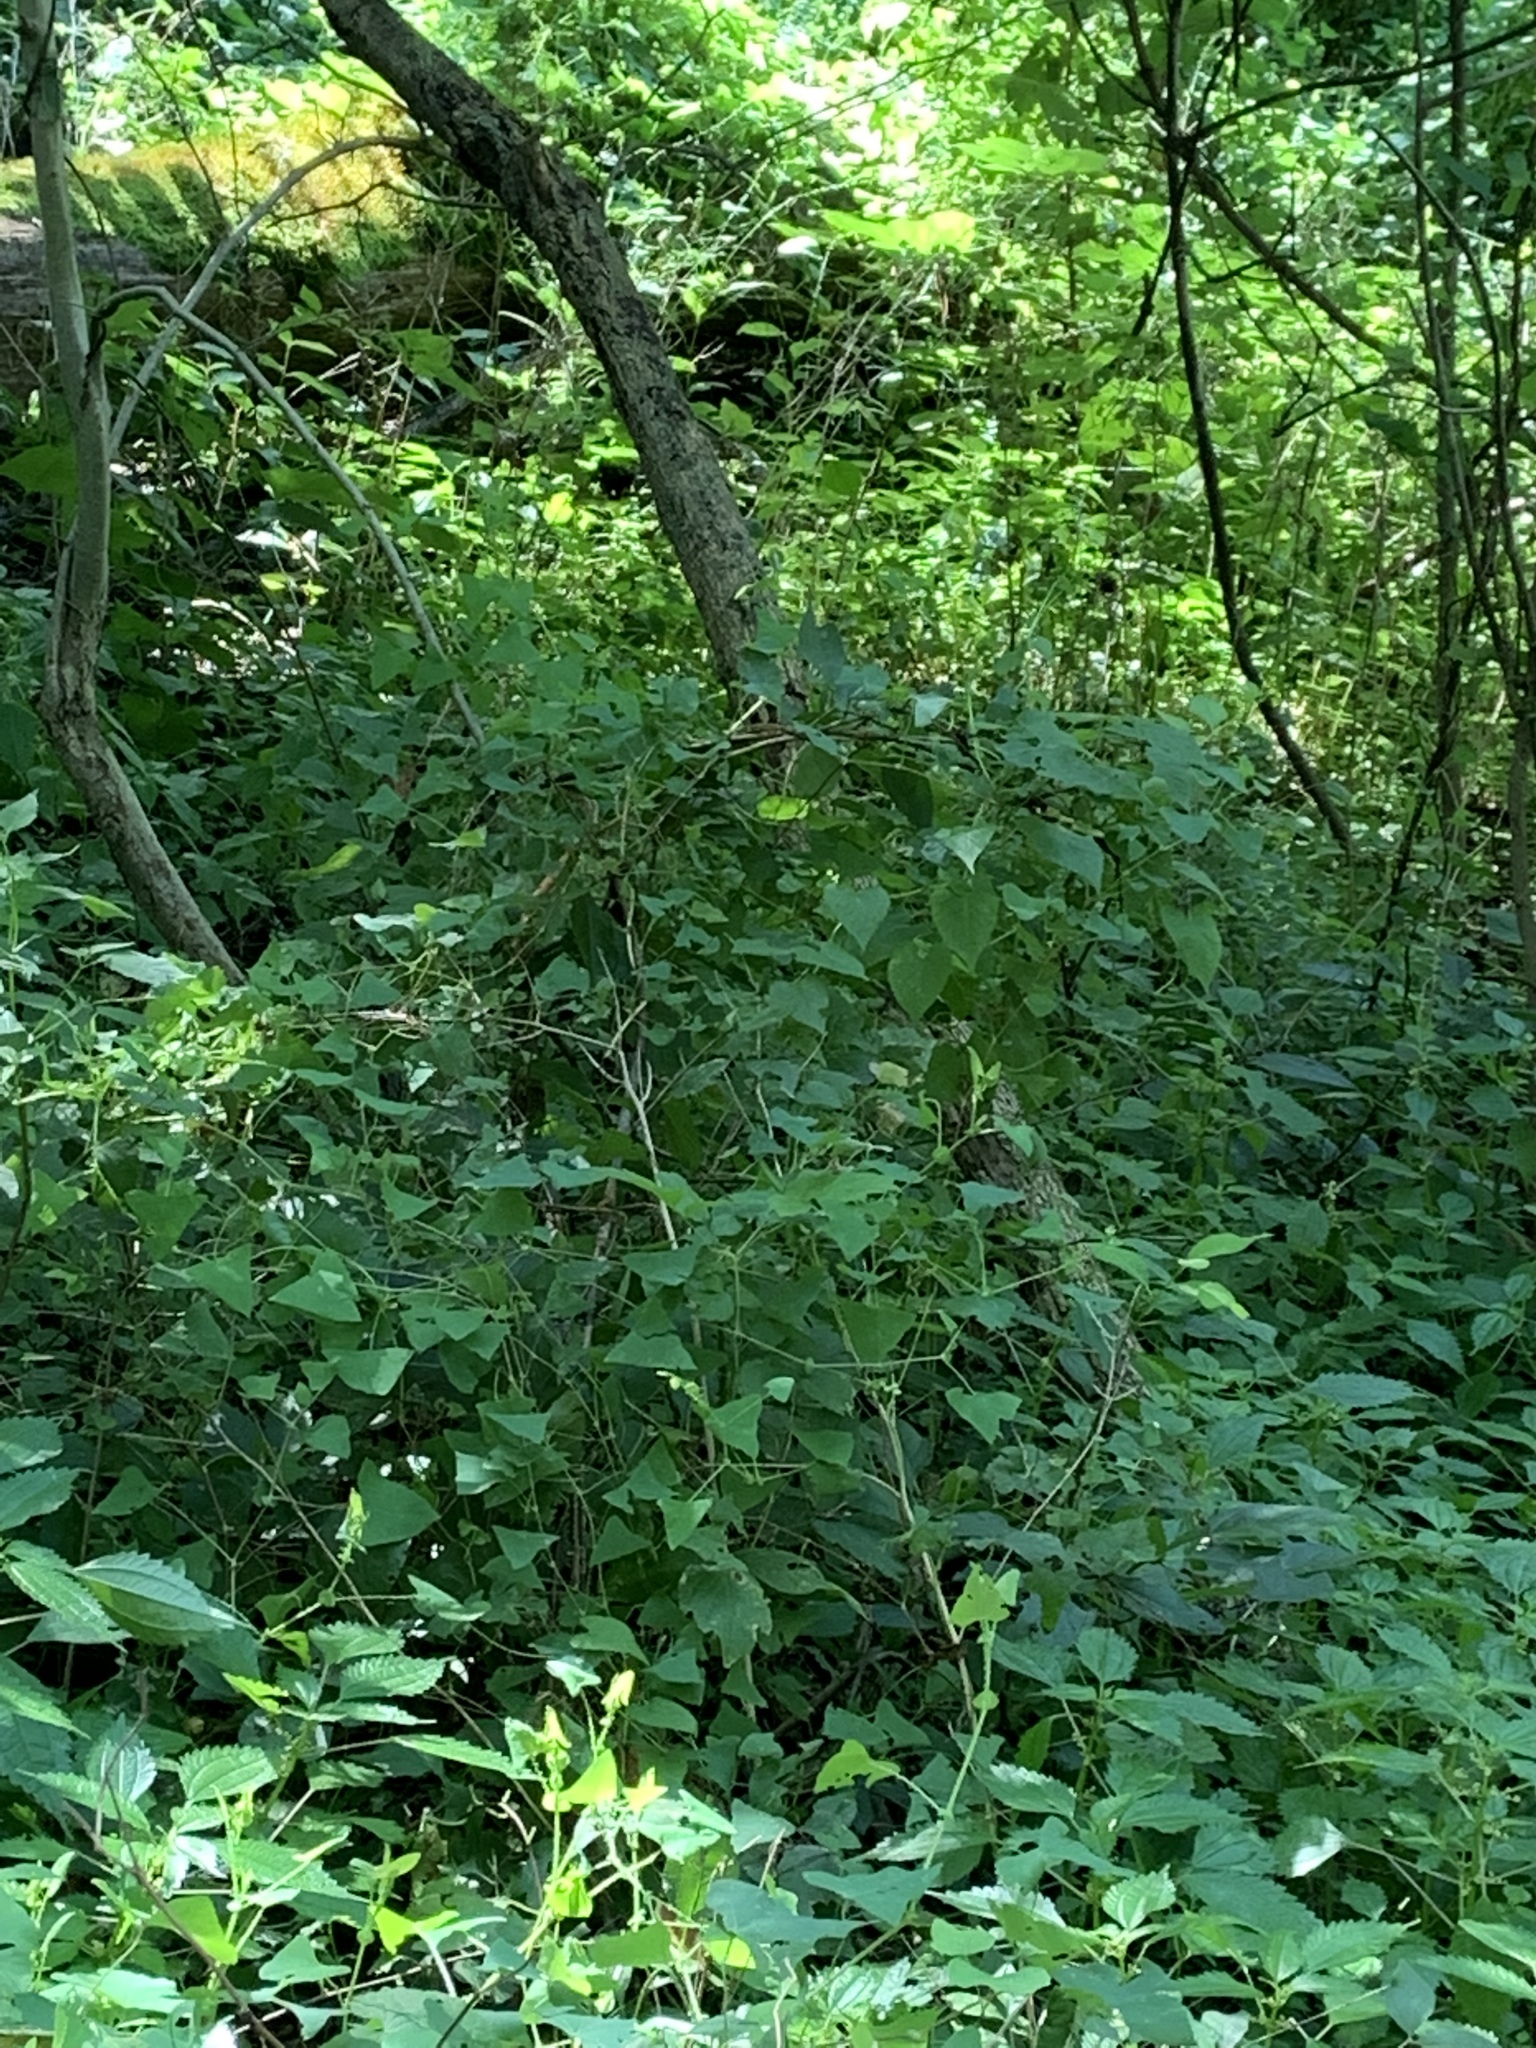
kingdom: Plantae
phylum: Tracheophyta
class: Magnoliopsida
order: Caryophyllales
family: Polygonaceae
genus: Persicaria
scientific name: Persicaria perfoliata
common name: Asiatic tearthumb
